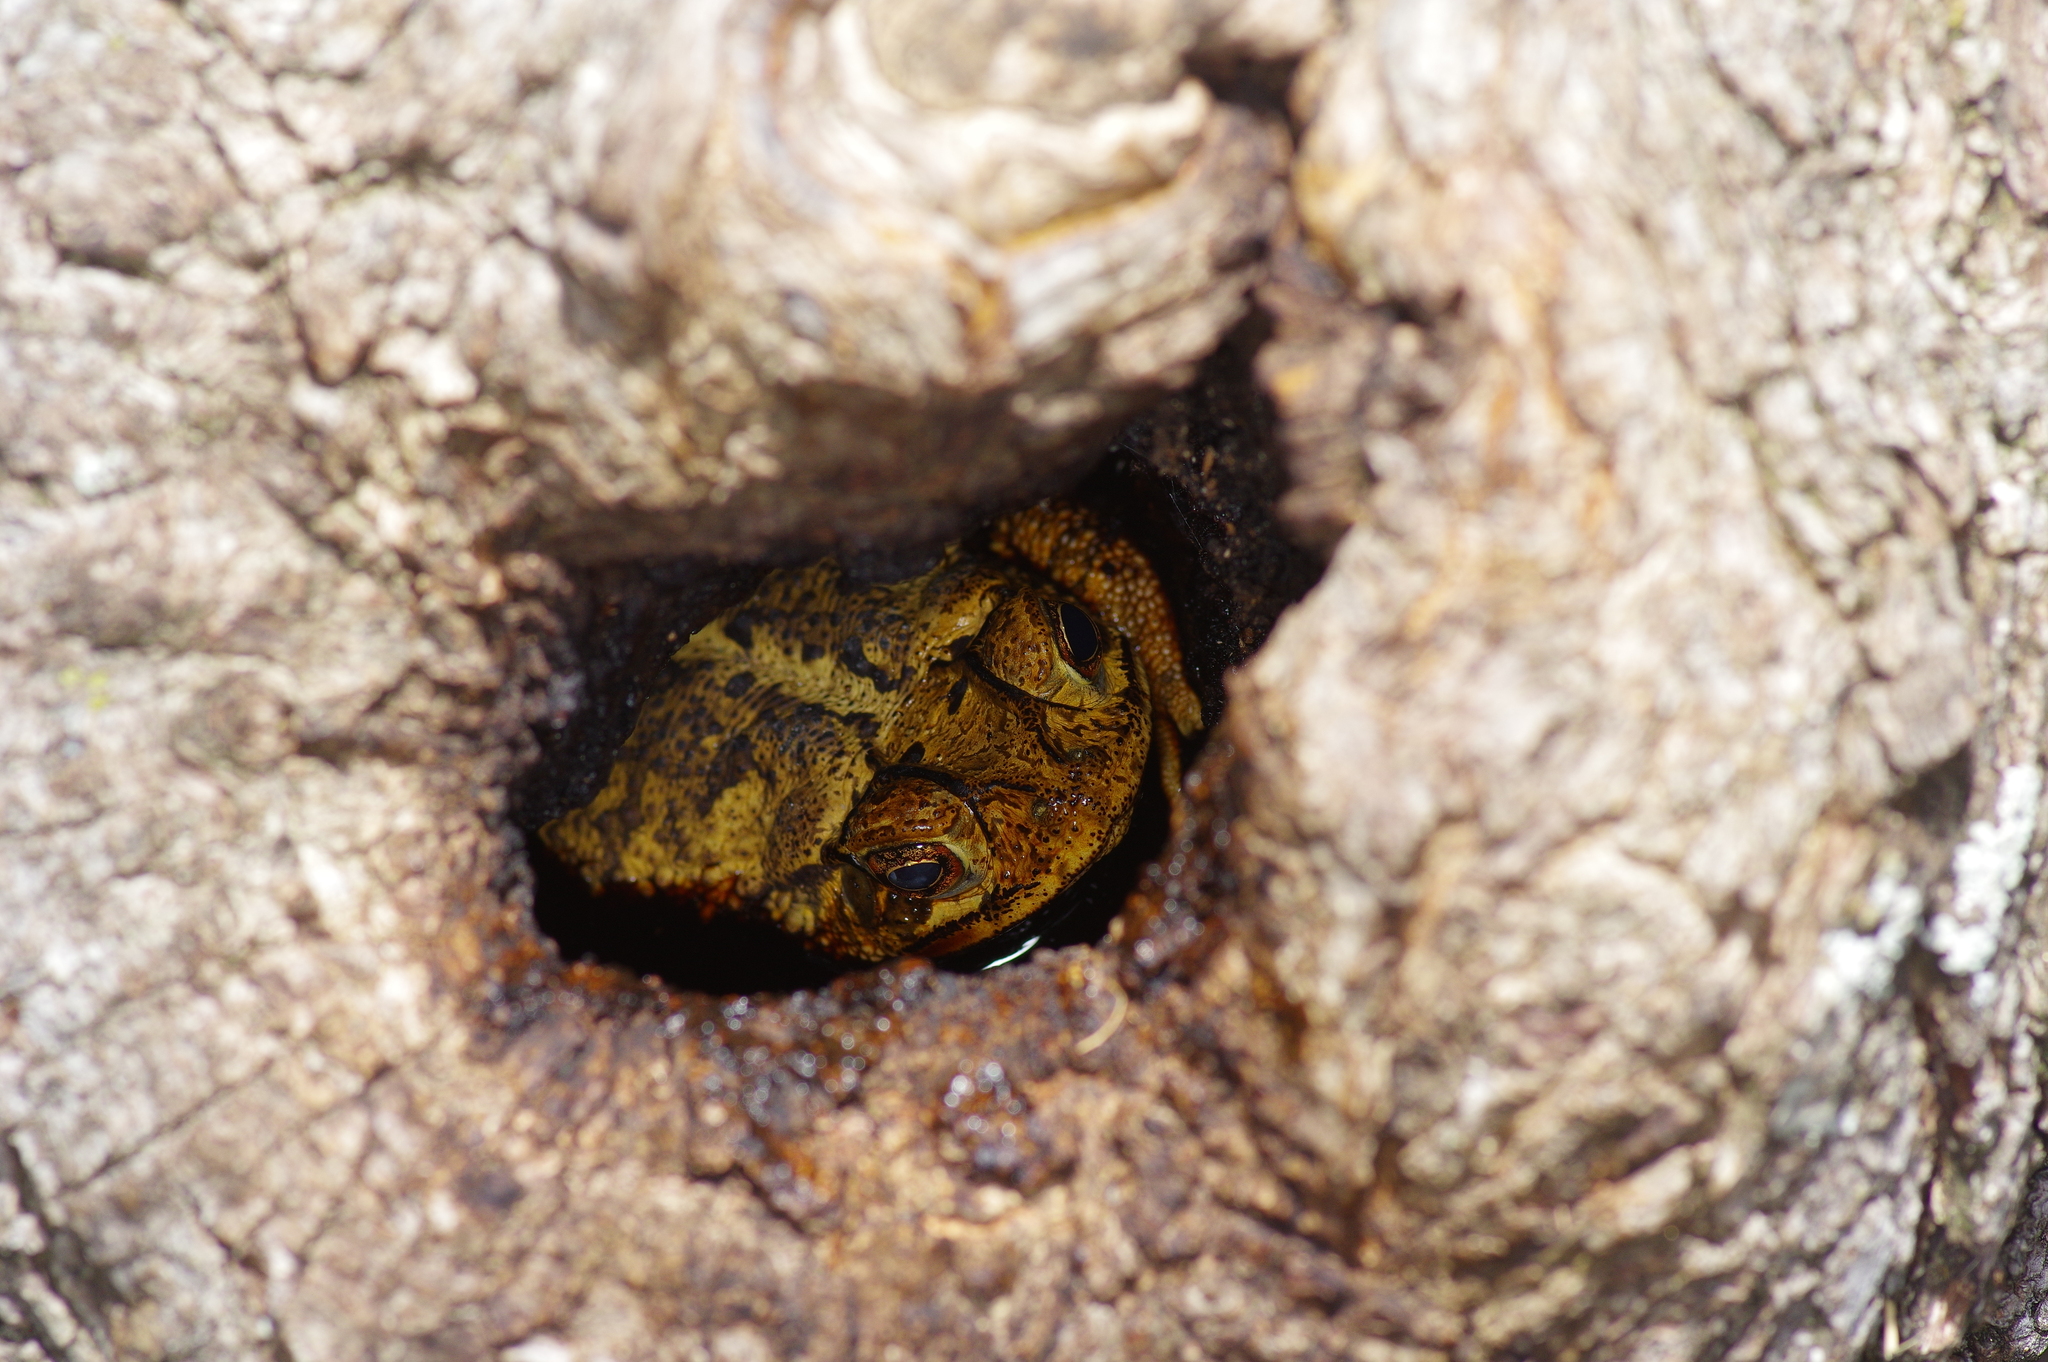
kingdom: Animalia
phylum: Chordata
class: Amphibia
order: Anura
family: Bufonidae
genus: Incilius
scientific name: Incilius nebulifer
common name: Gulf coast toad
